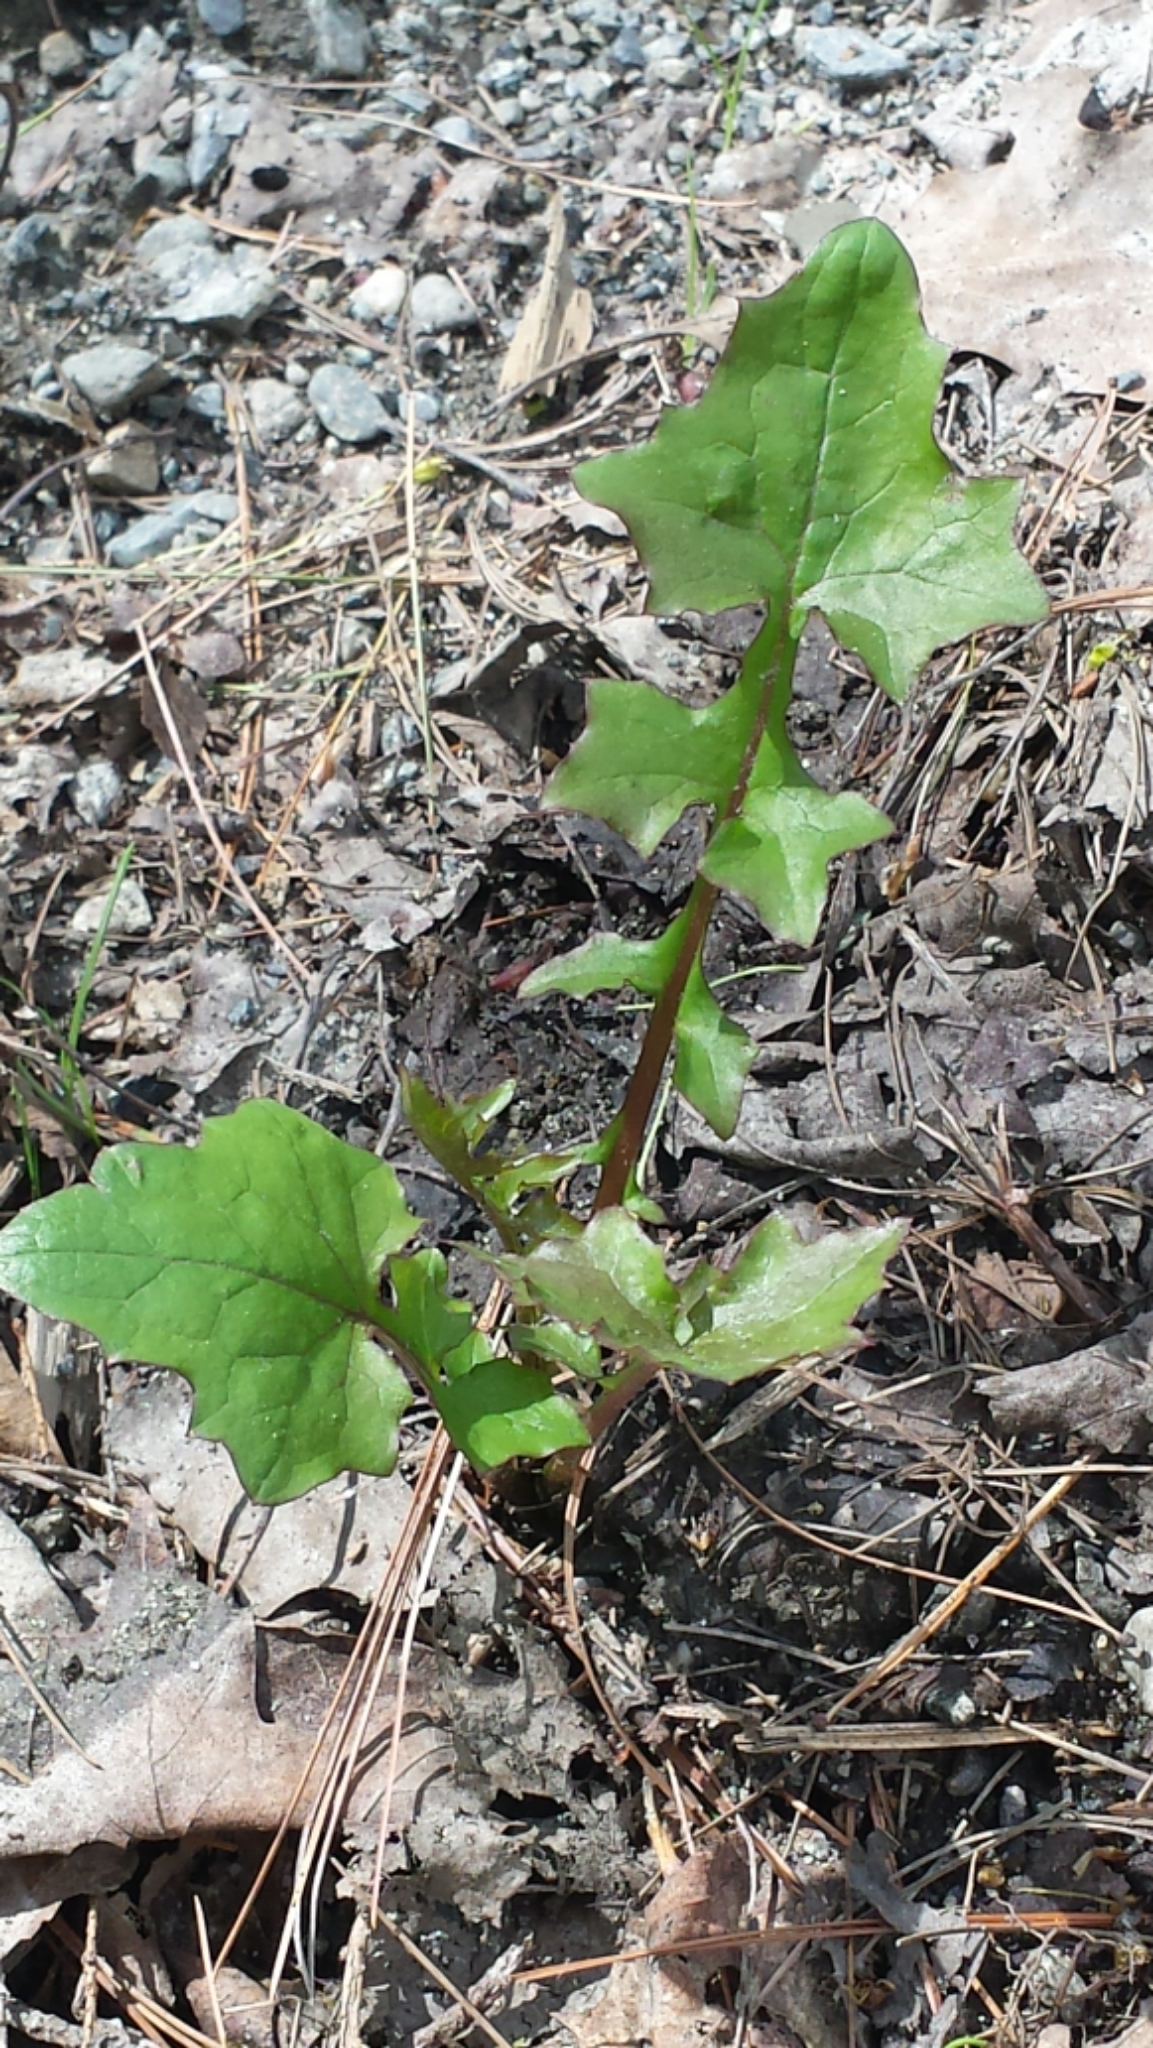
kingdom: Plantae
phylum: Tracheophyta
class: Magnoliopsida
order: Asterales
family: Asteraceae
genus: Mycelis
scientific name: Mycelis muralis
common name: Wall lettuce
